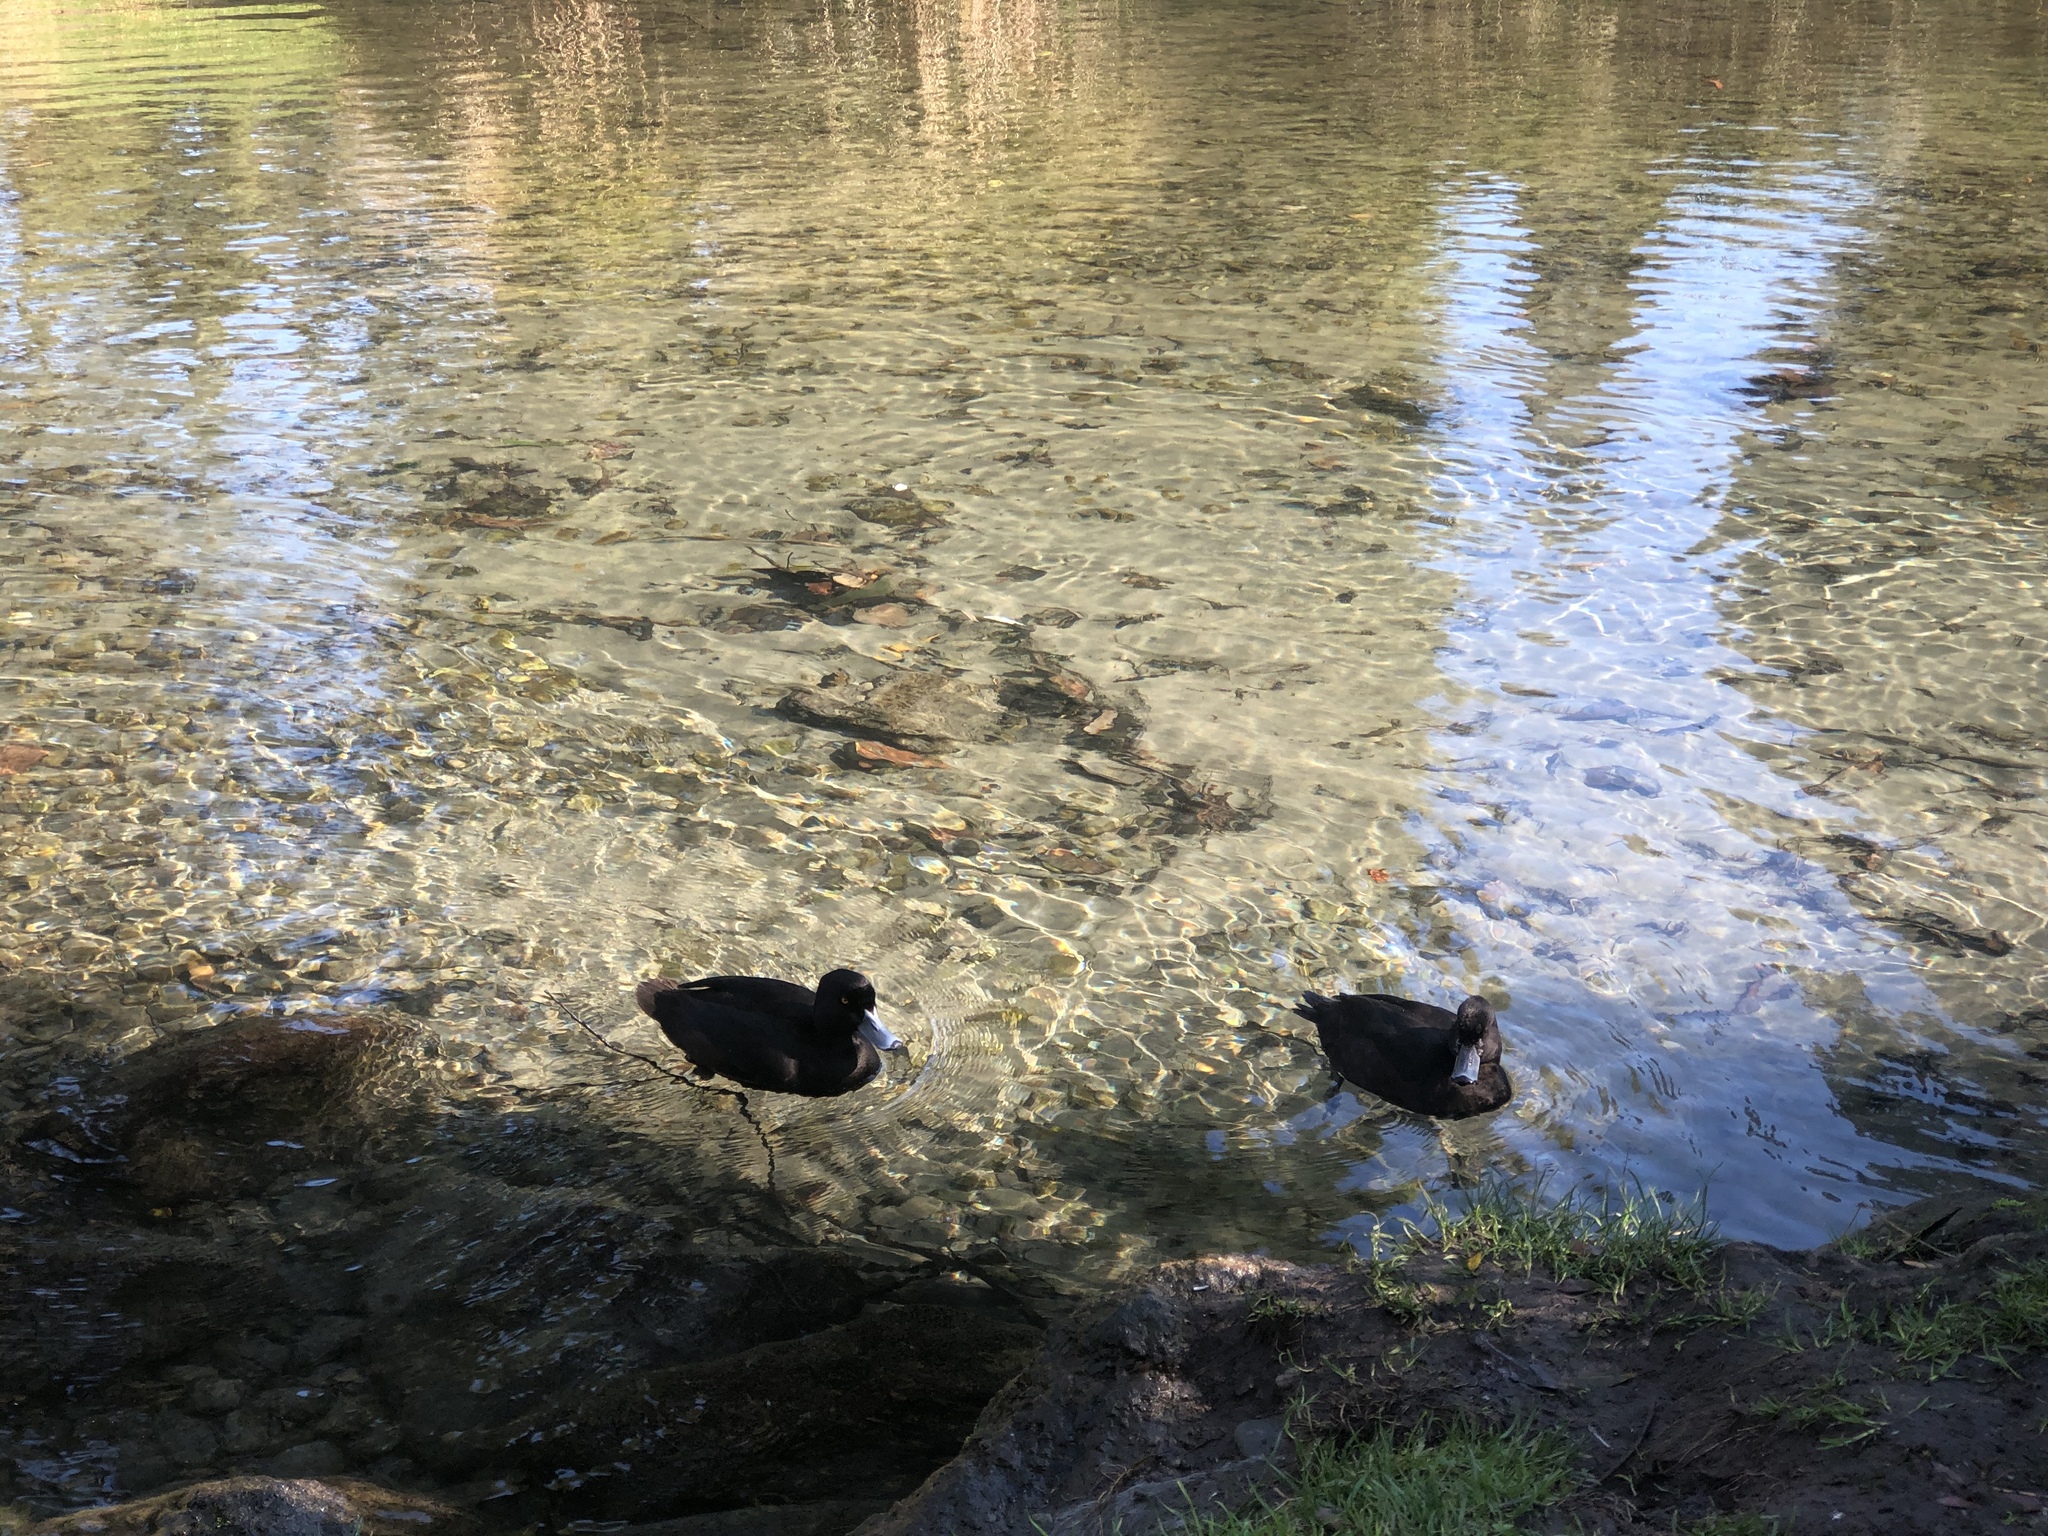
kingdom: Animalia
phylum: Chordata
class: Aves
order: Anseriformes
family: Anatidae
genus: Aythya
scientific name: Aythya novaeseelandiae
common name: New zealand scaup
